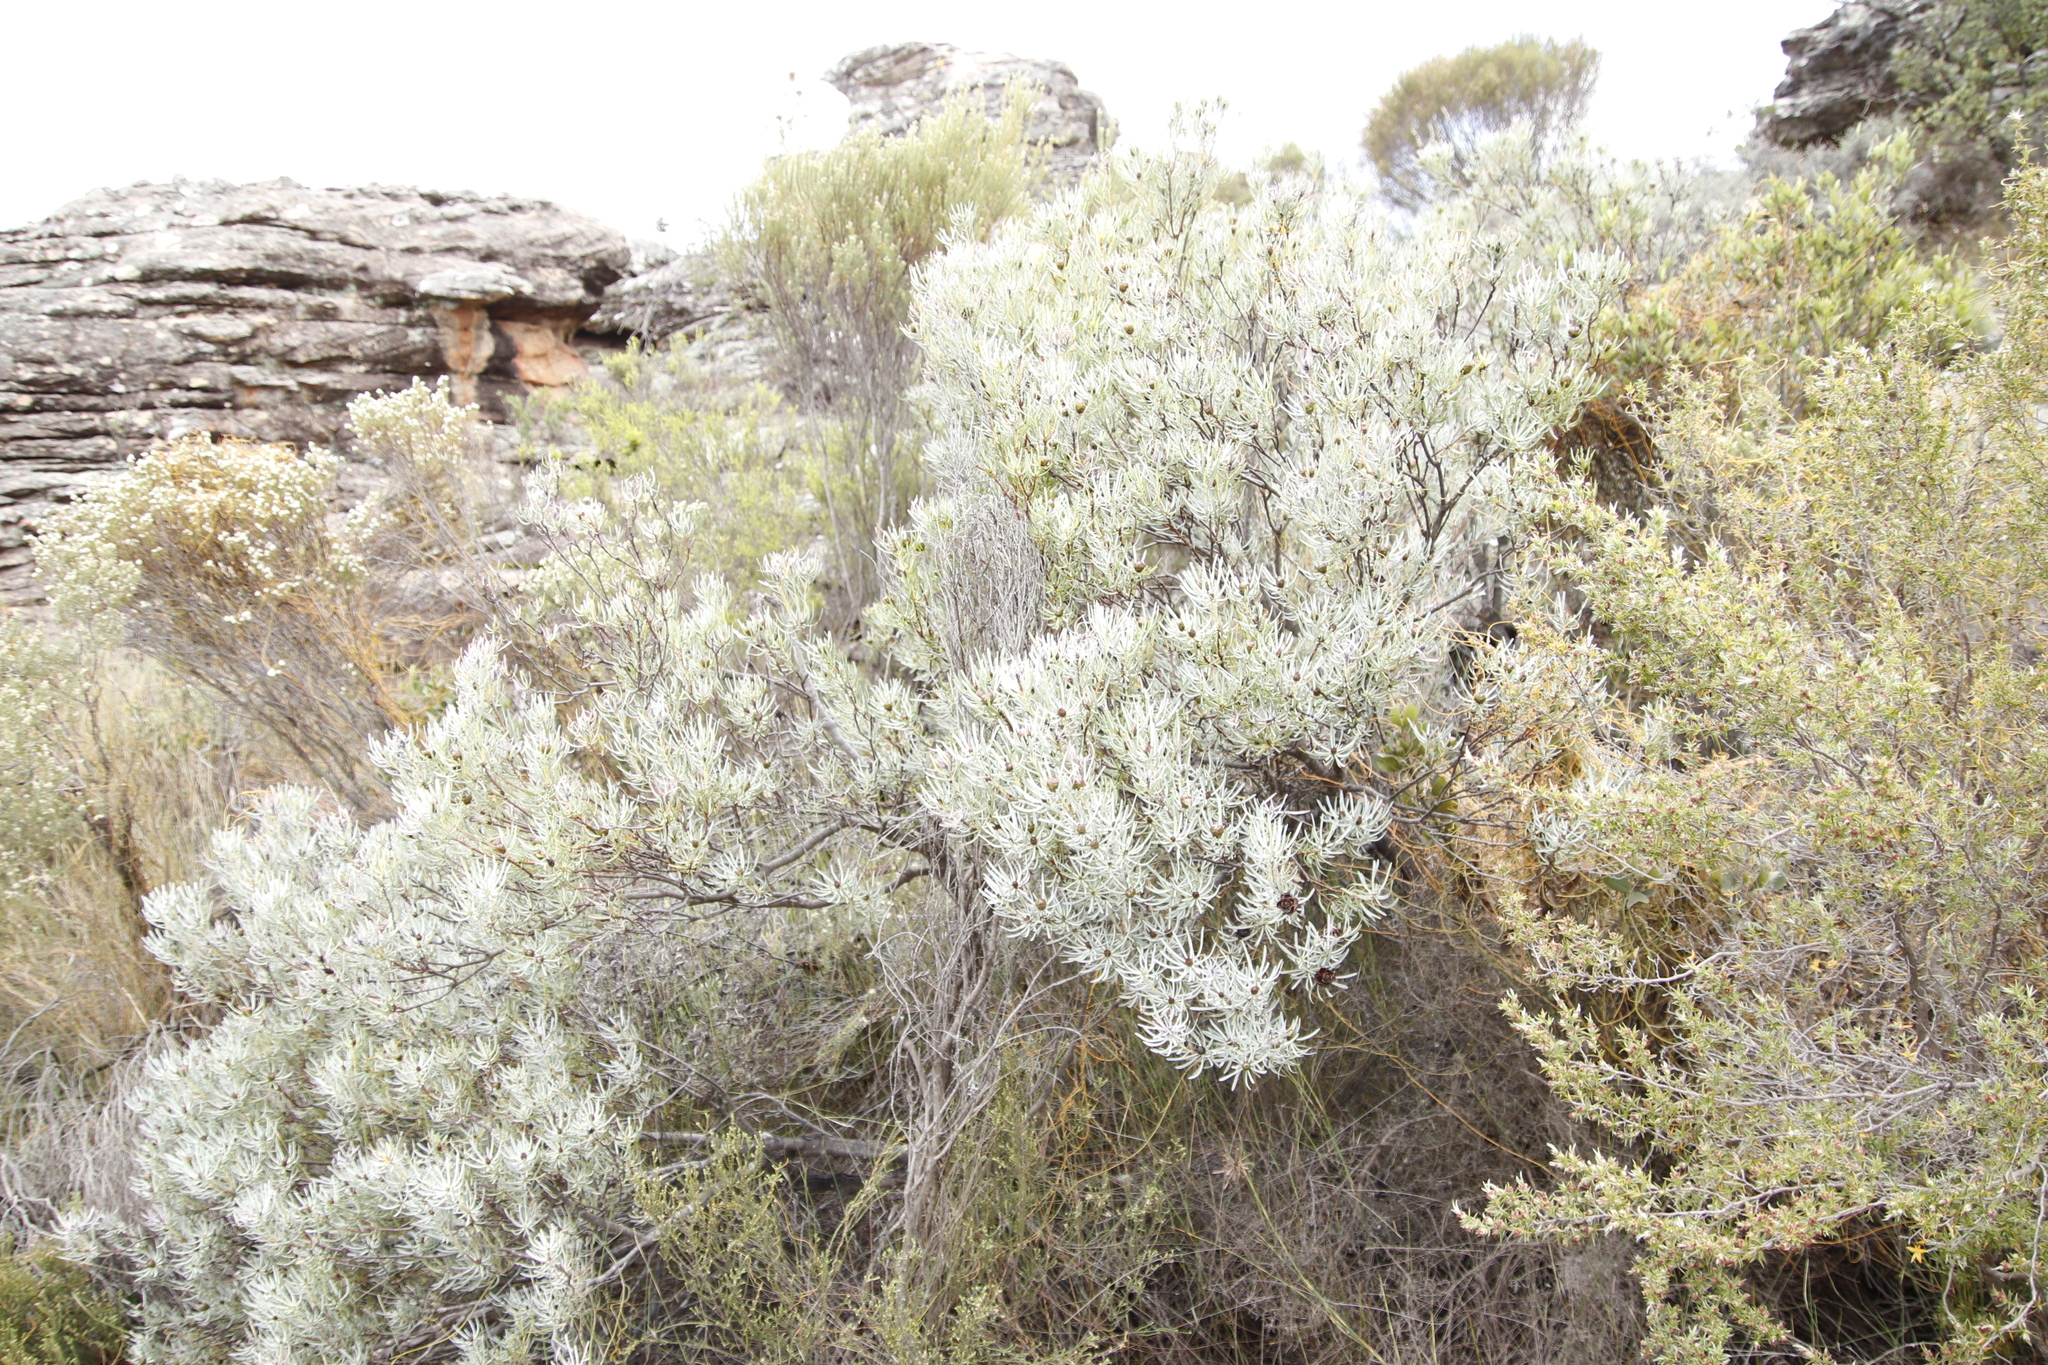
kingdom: Plantae
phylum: Tracheophyta
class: Magnoliopsida
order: Proteales
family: Proteaceae
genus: Leucadendron
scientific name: Leucadendron meyerianum
